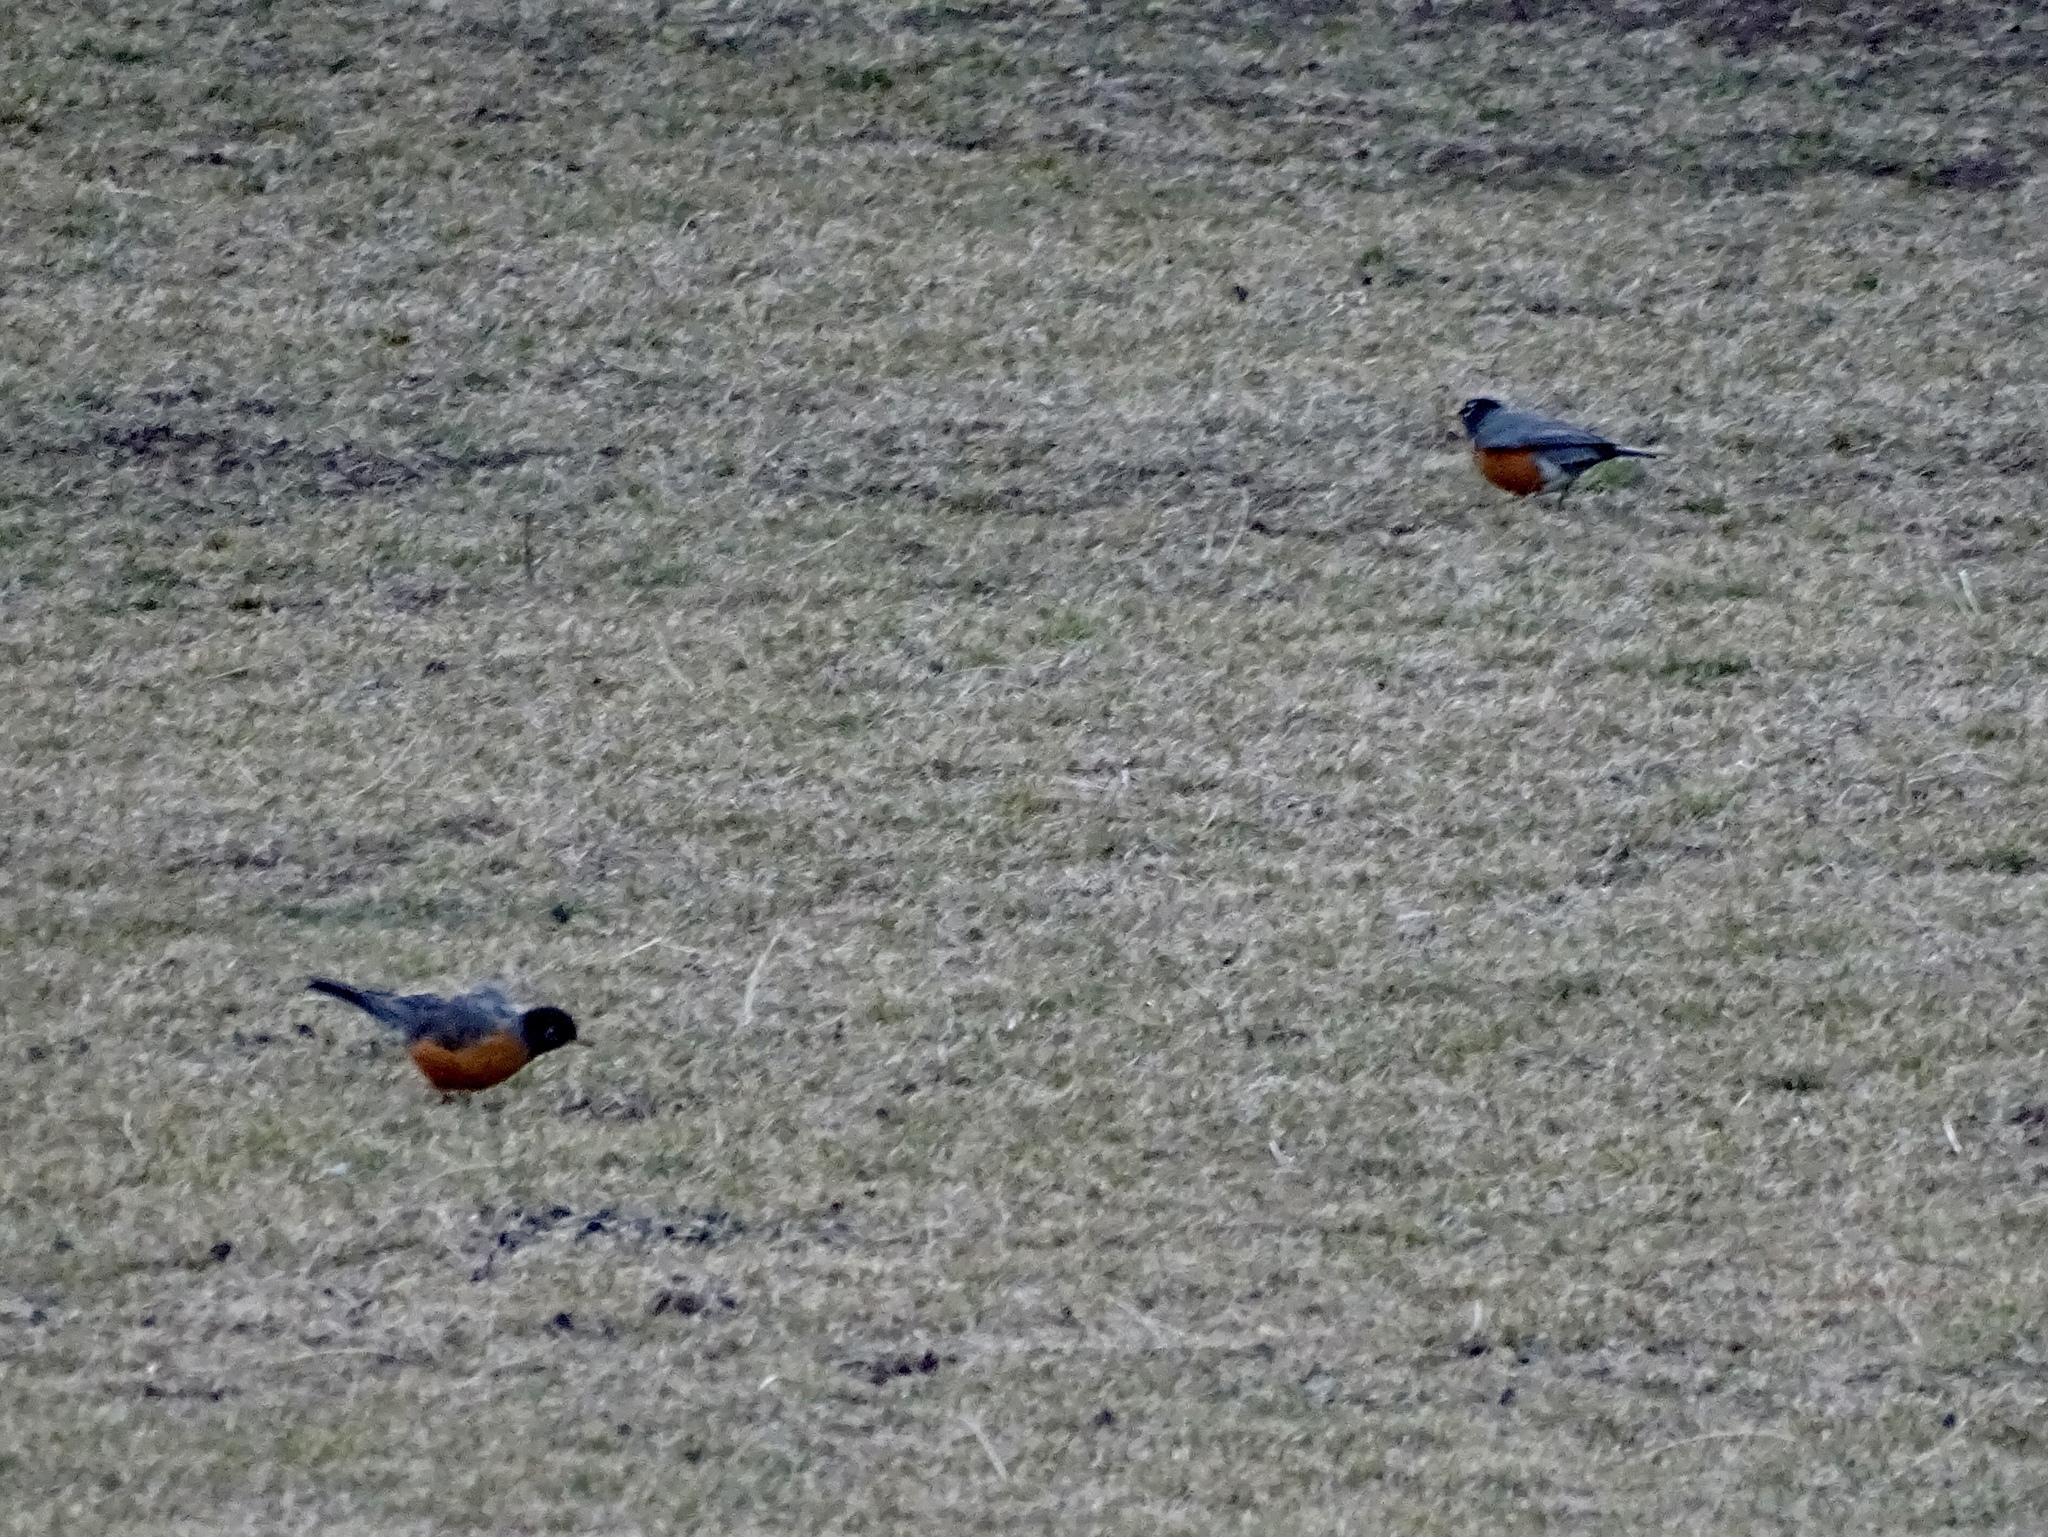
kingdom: Animalia
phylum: Chordata
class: Aves
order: Passeriformes
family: Turdidae
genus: Turdus
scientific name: Turdus migratorius
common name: American robin
